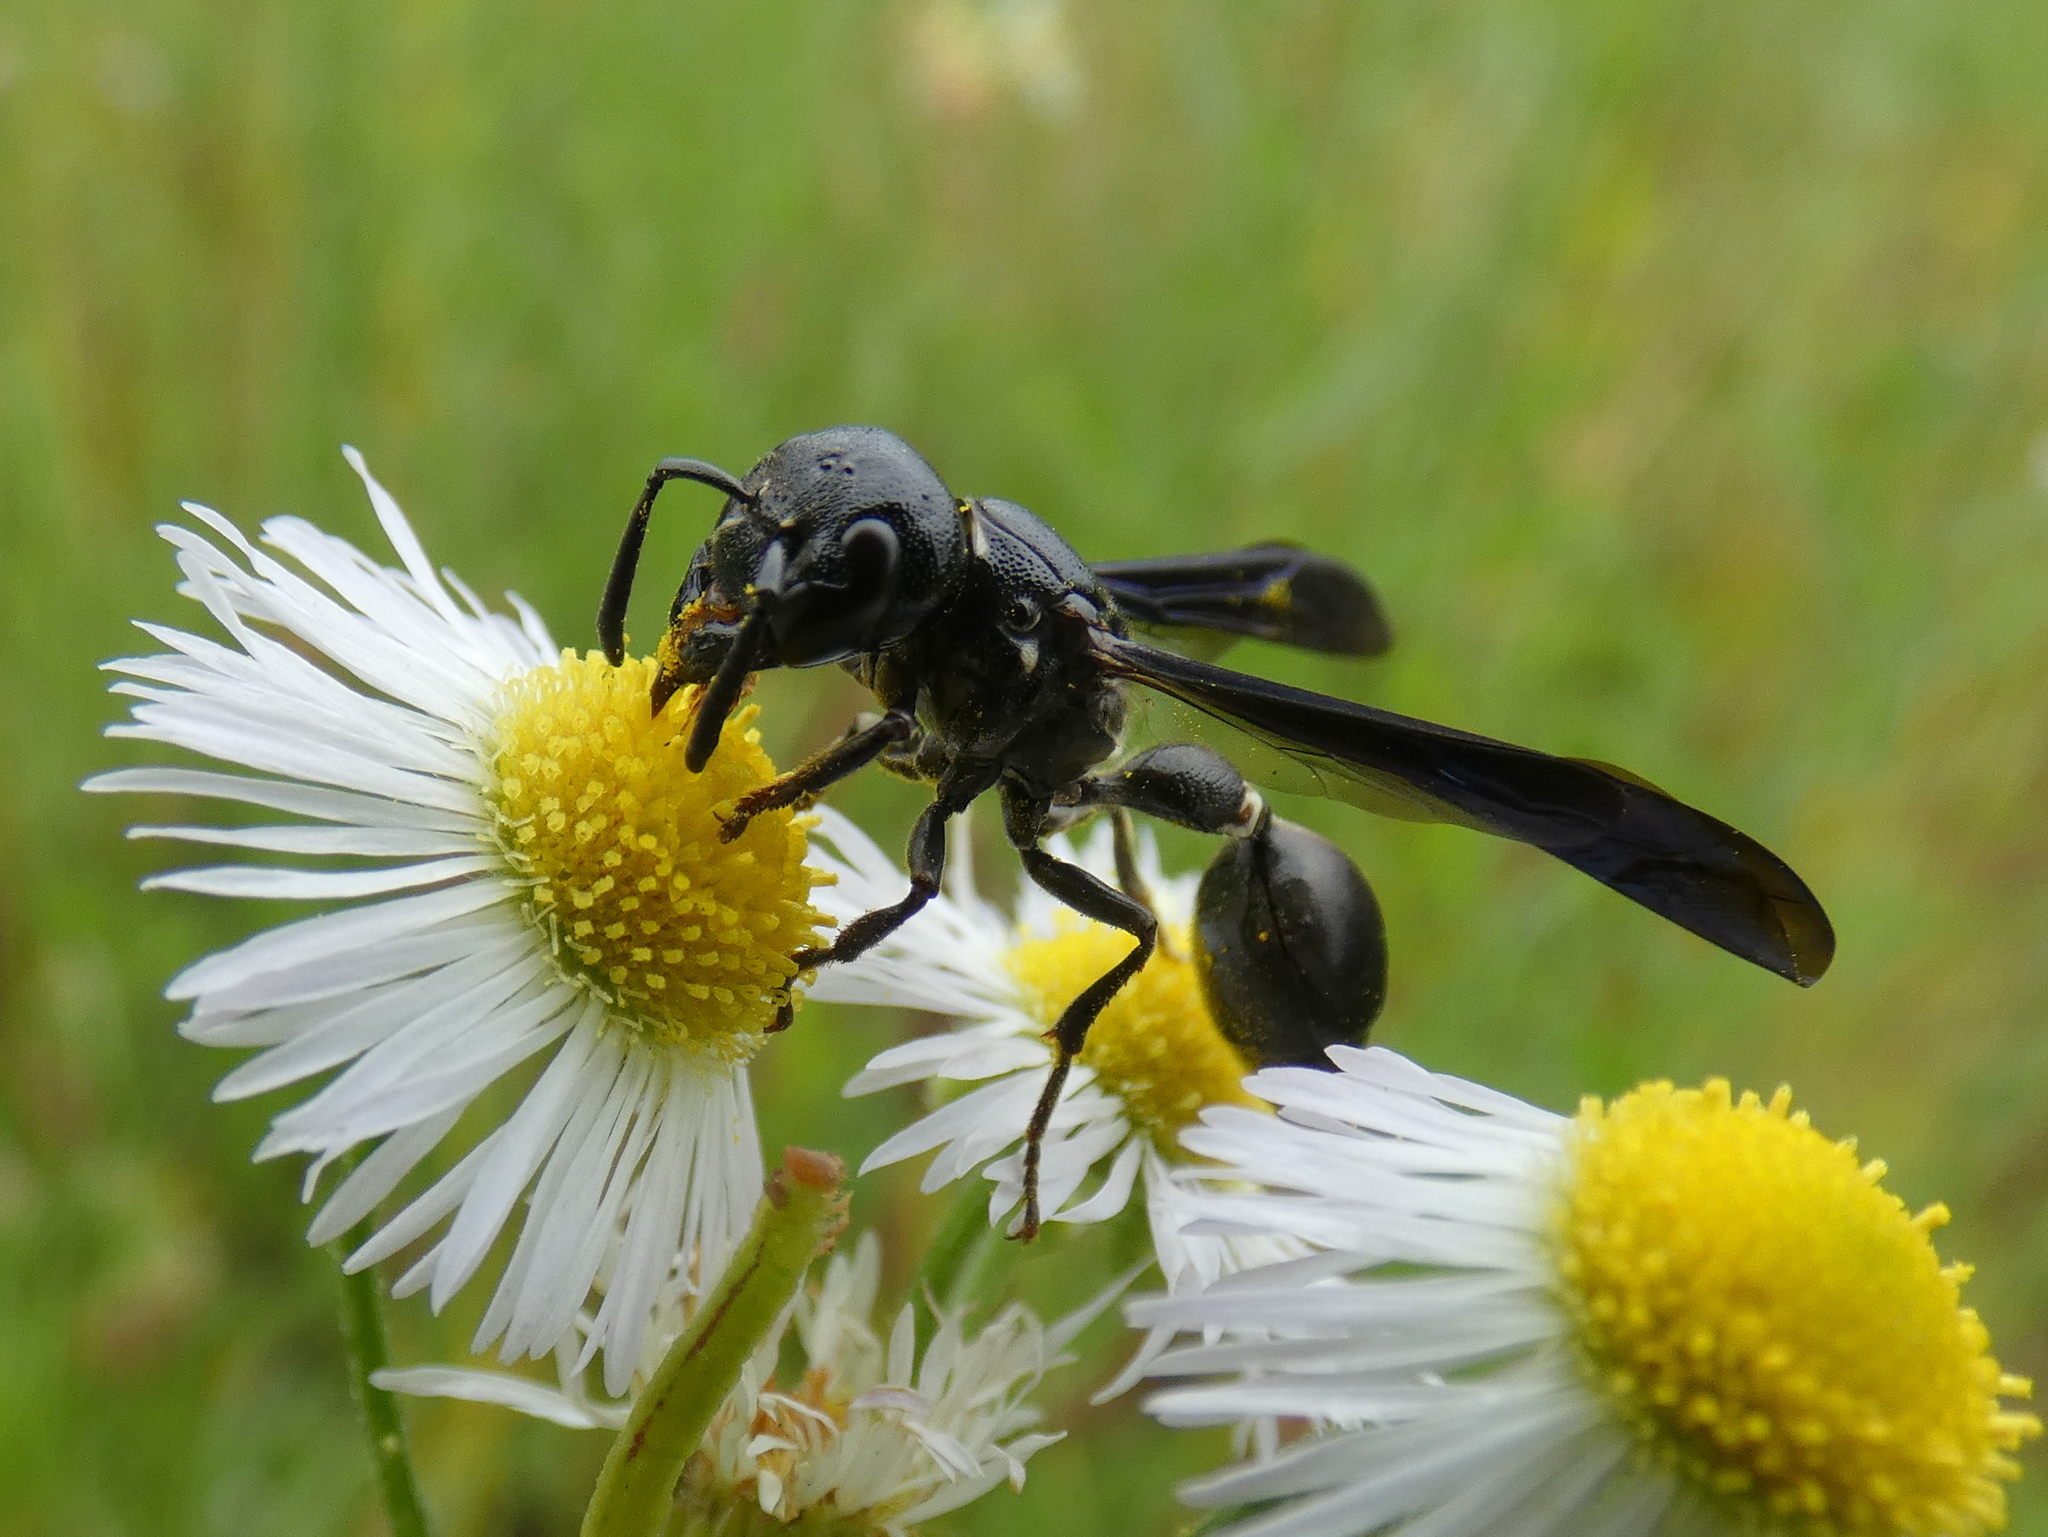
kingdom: Animalia
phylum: Arthropoda
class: Insecta
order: Hymenoptera
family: Eumenidae
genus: Zethus
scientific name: Zethus spinipes
